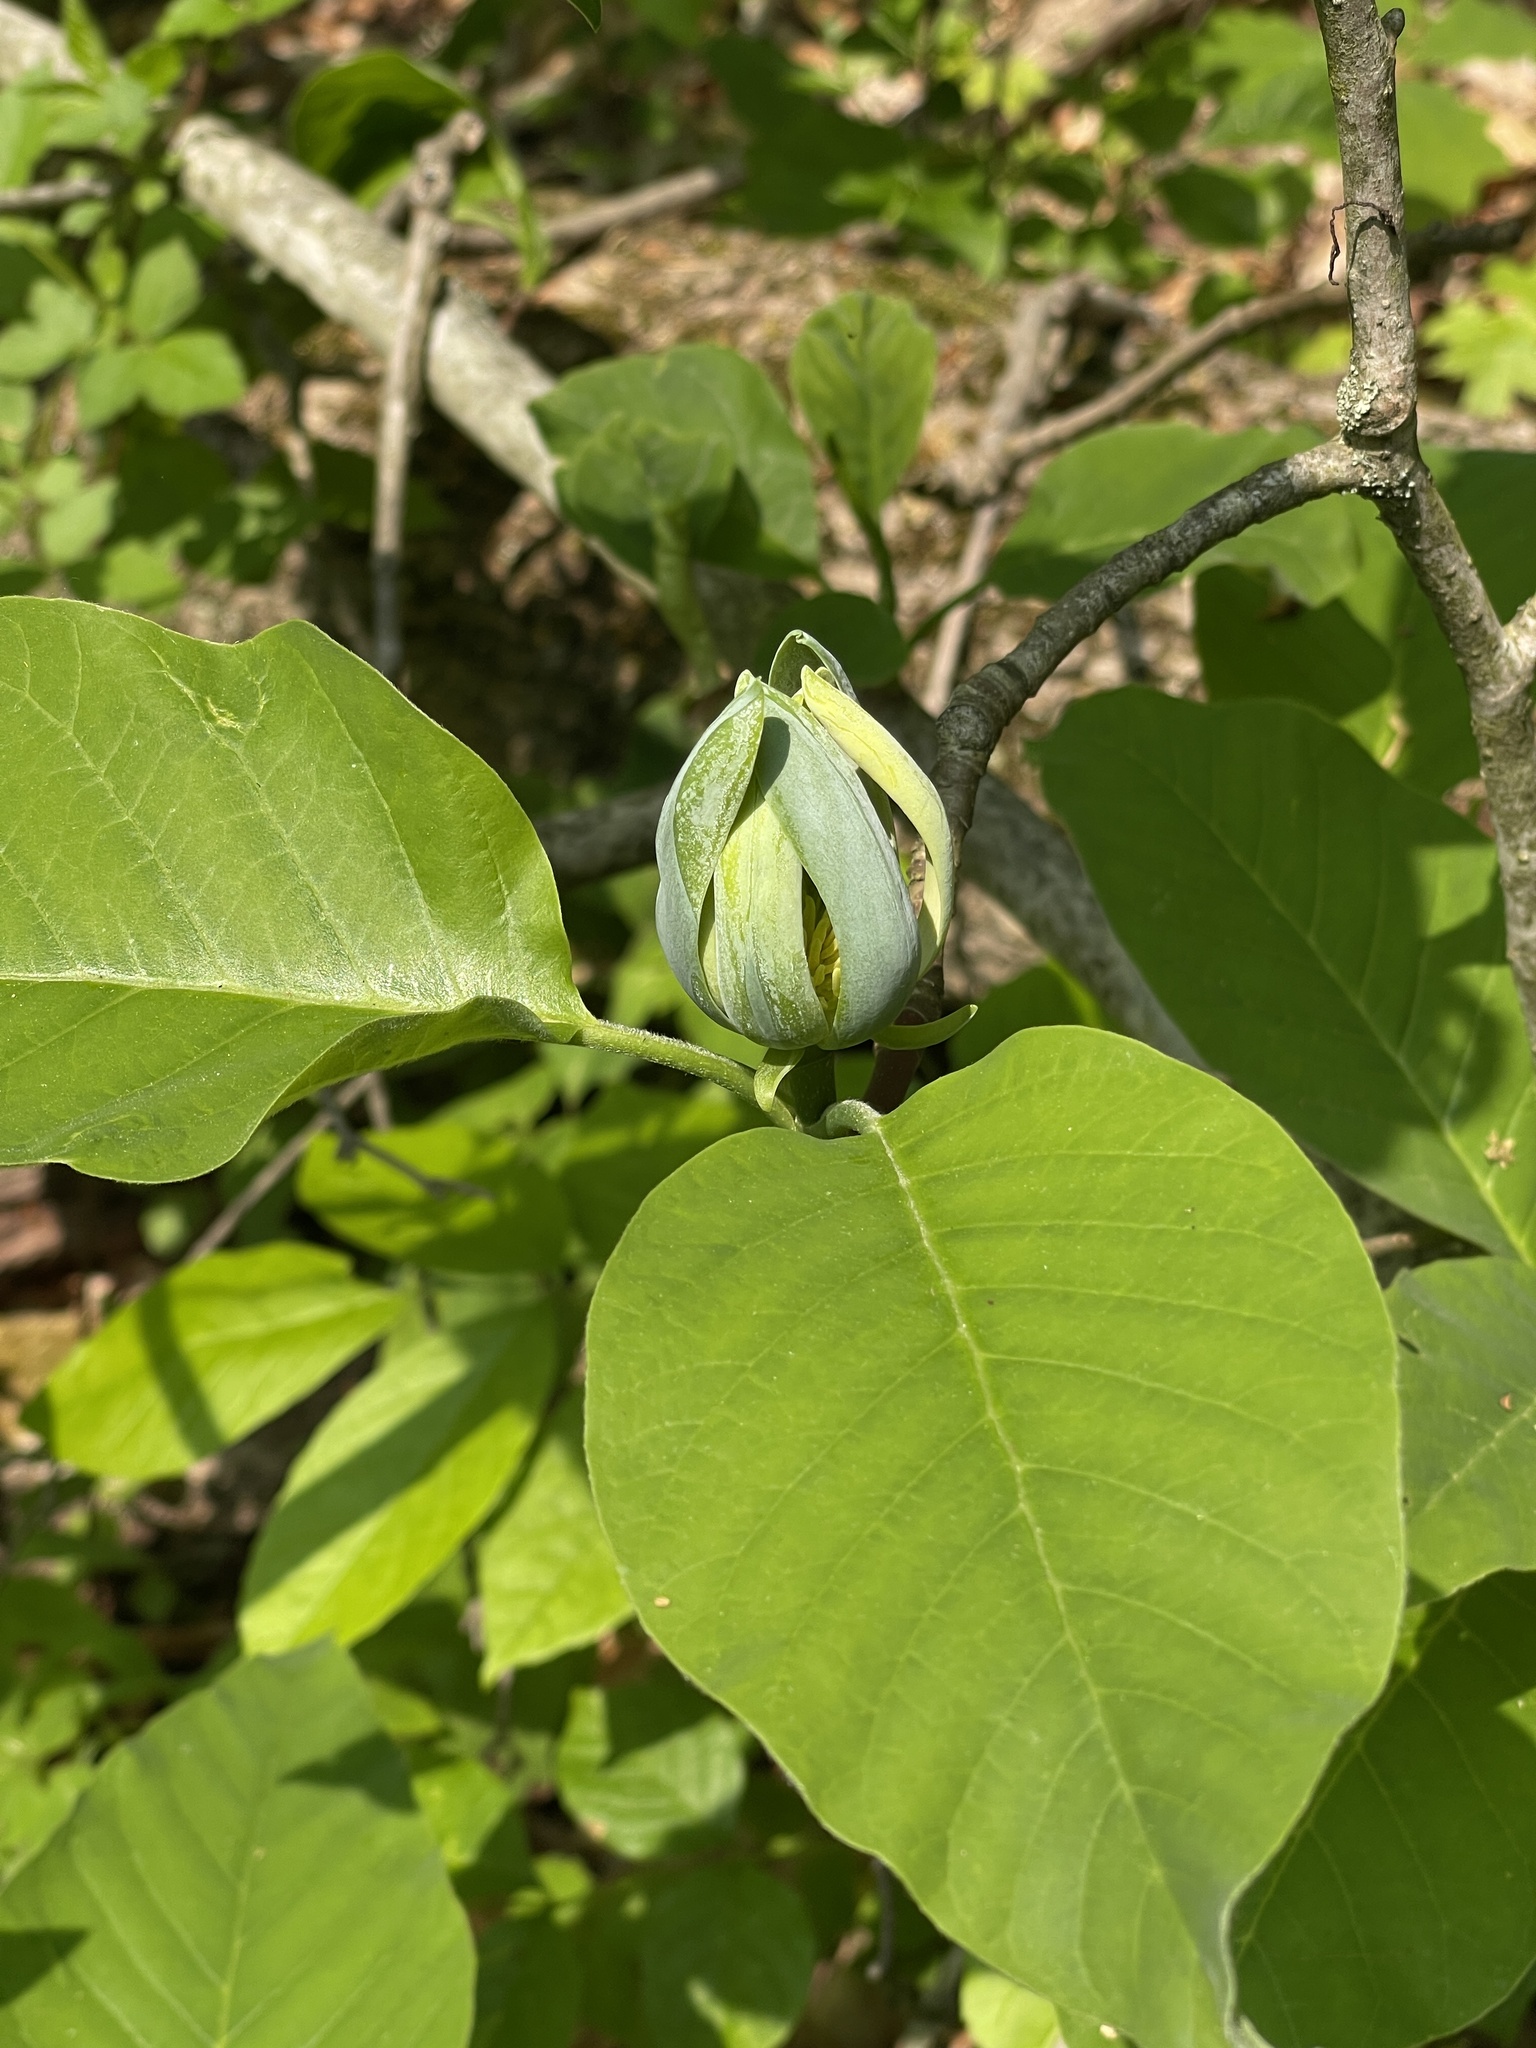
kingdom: Plantae
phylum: Tracheophyta
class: Magnoliopsida
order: Magnoliales
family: Magnoliaceae
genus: Magnolia
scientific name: Magnolia acuminata
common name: Cucumber magnolia
